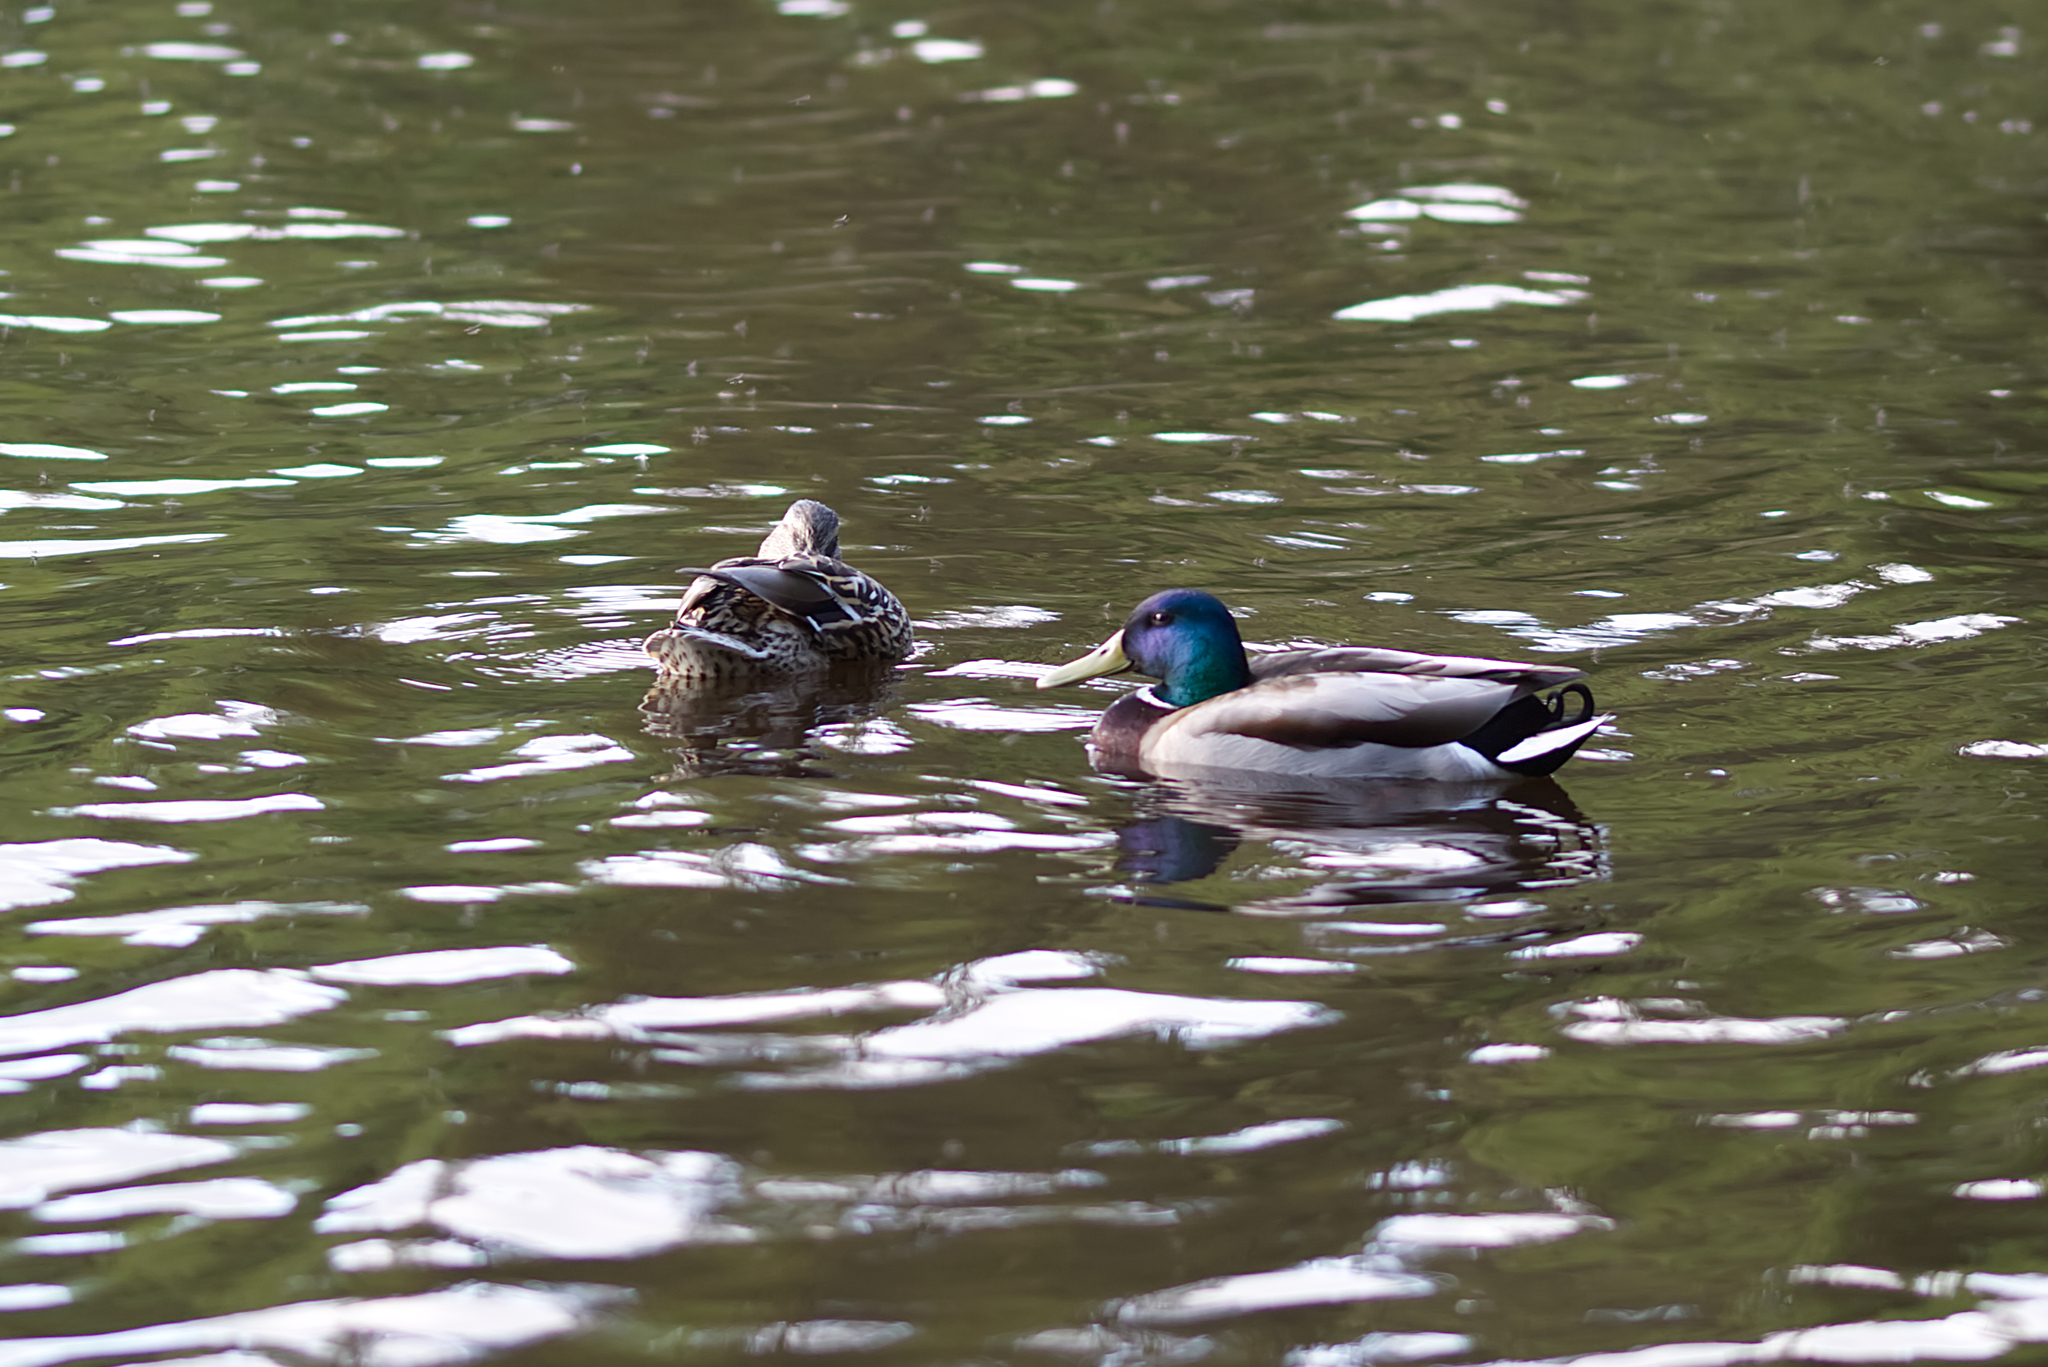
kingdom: Animalia
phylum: Chordata
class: Aves
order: Anseriformes
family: Anatidae
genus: Anas
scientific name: Anas platyrhynchos
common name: Mallard
